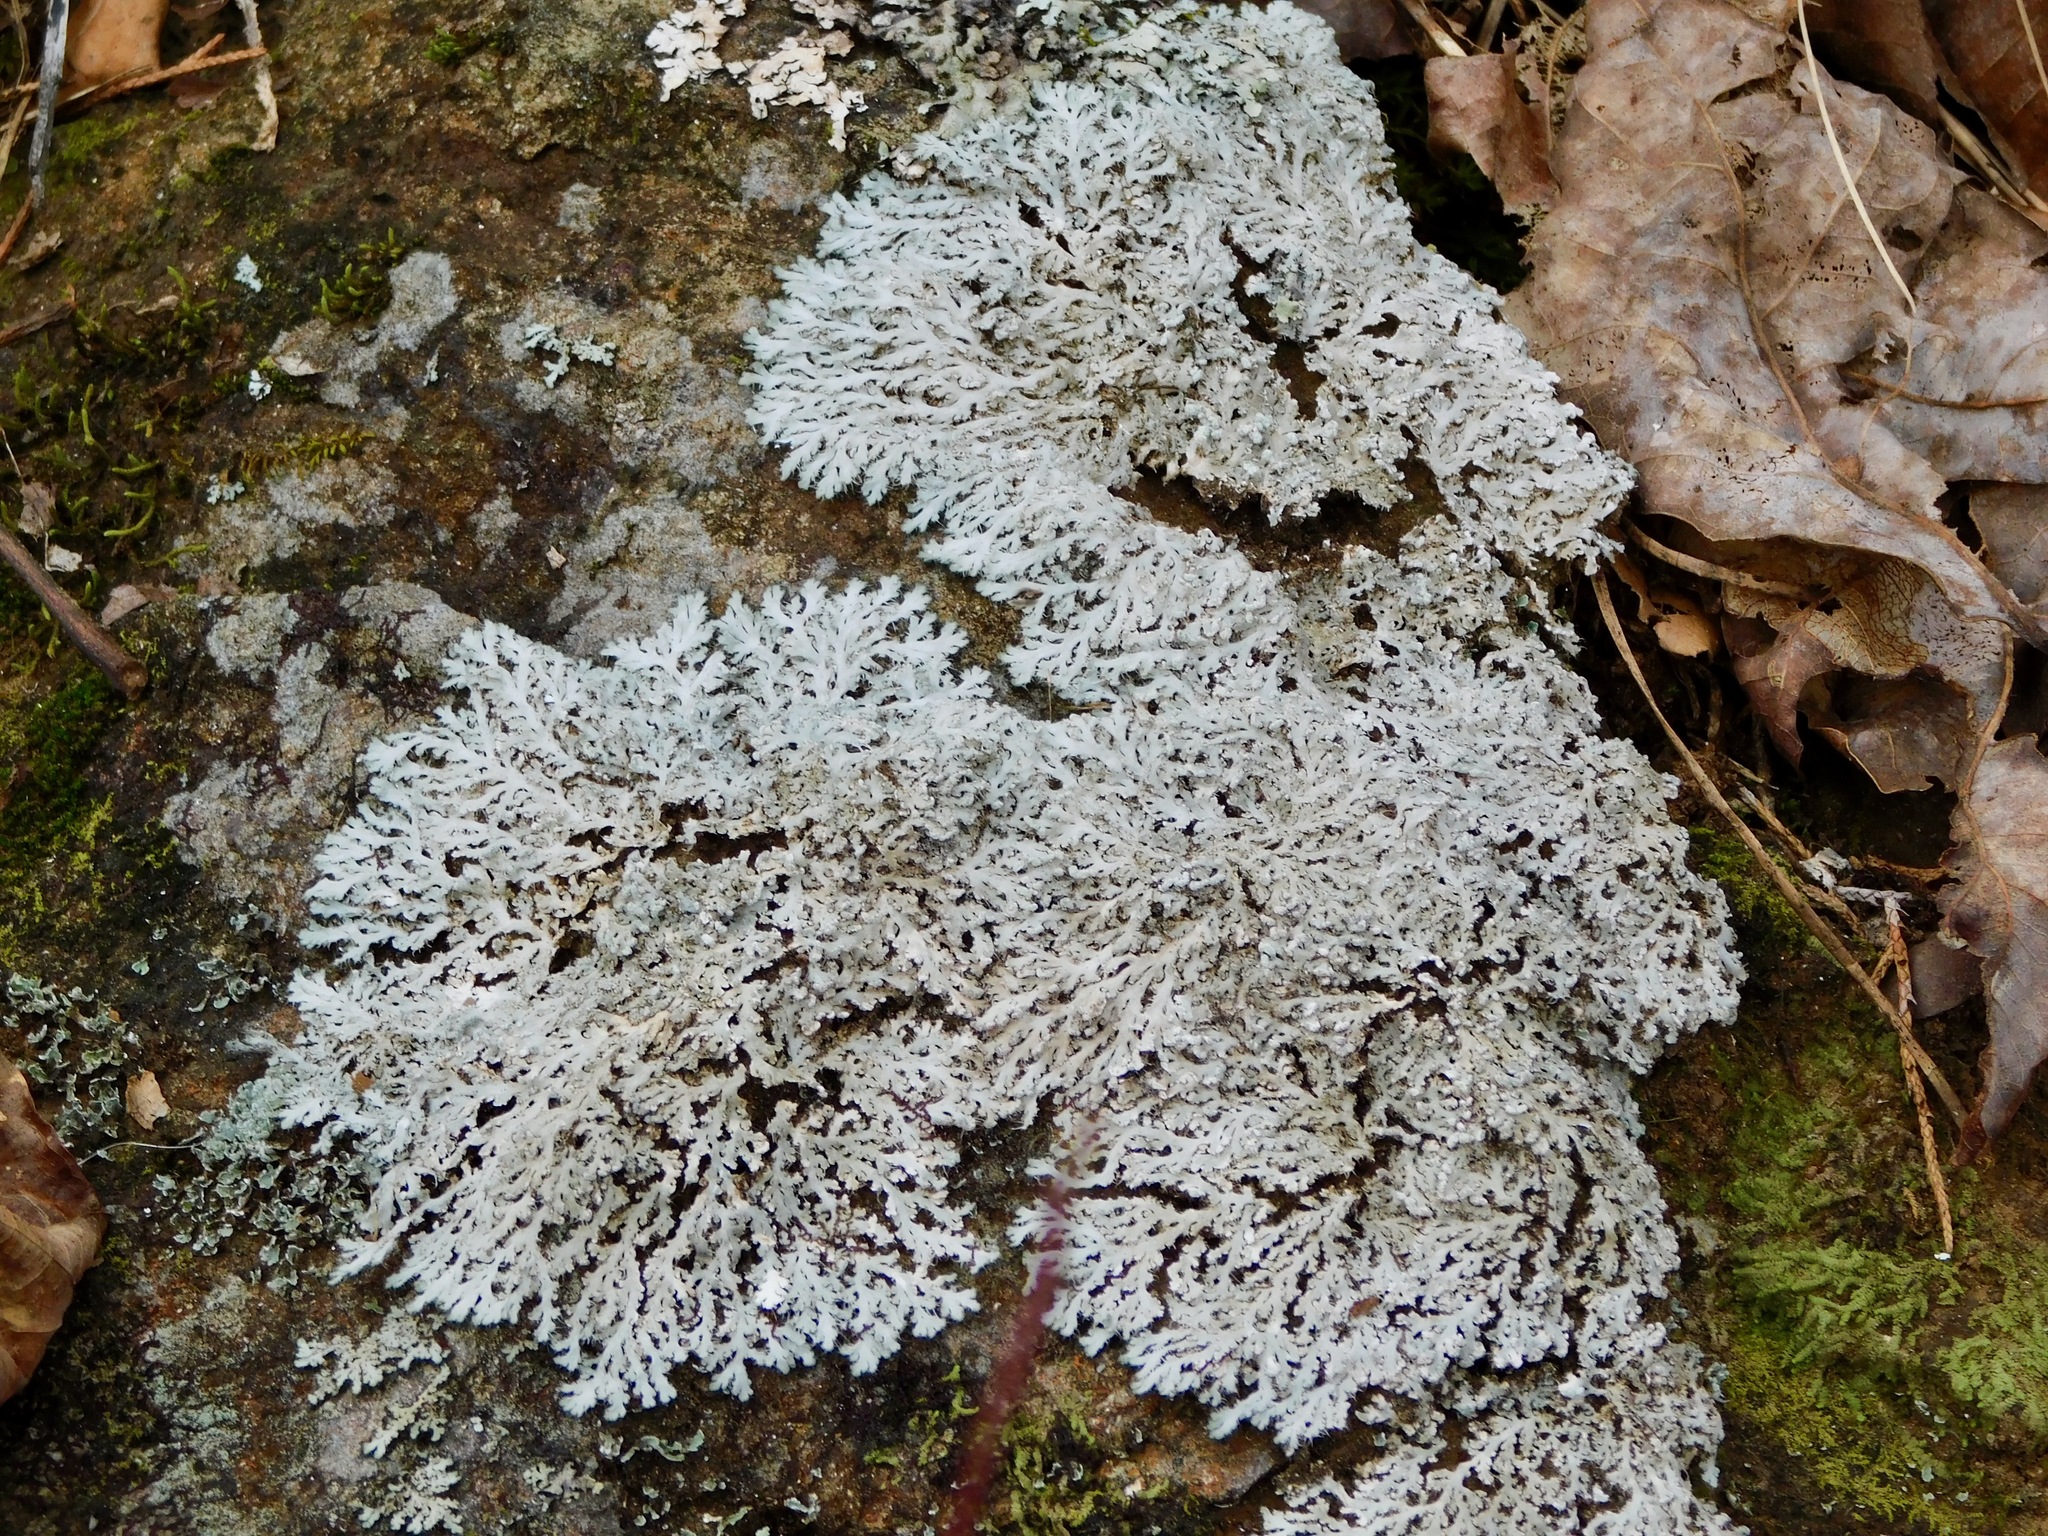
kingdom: Fungi
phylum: Ascomycota
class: Lecanoromycetes
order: Caliciales
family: Physciaceae
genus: Heterodermia
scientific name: Heterodermia speciosa
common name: Powdered fringe lichen
